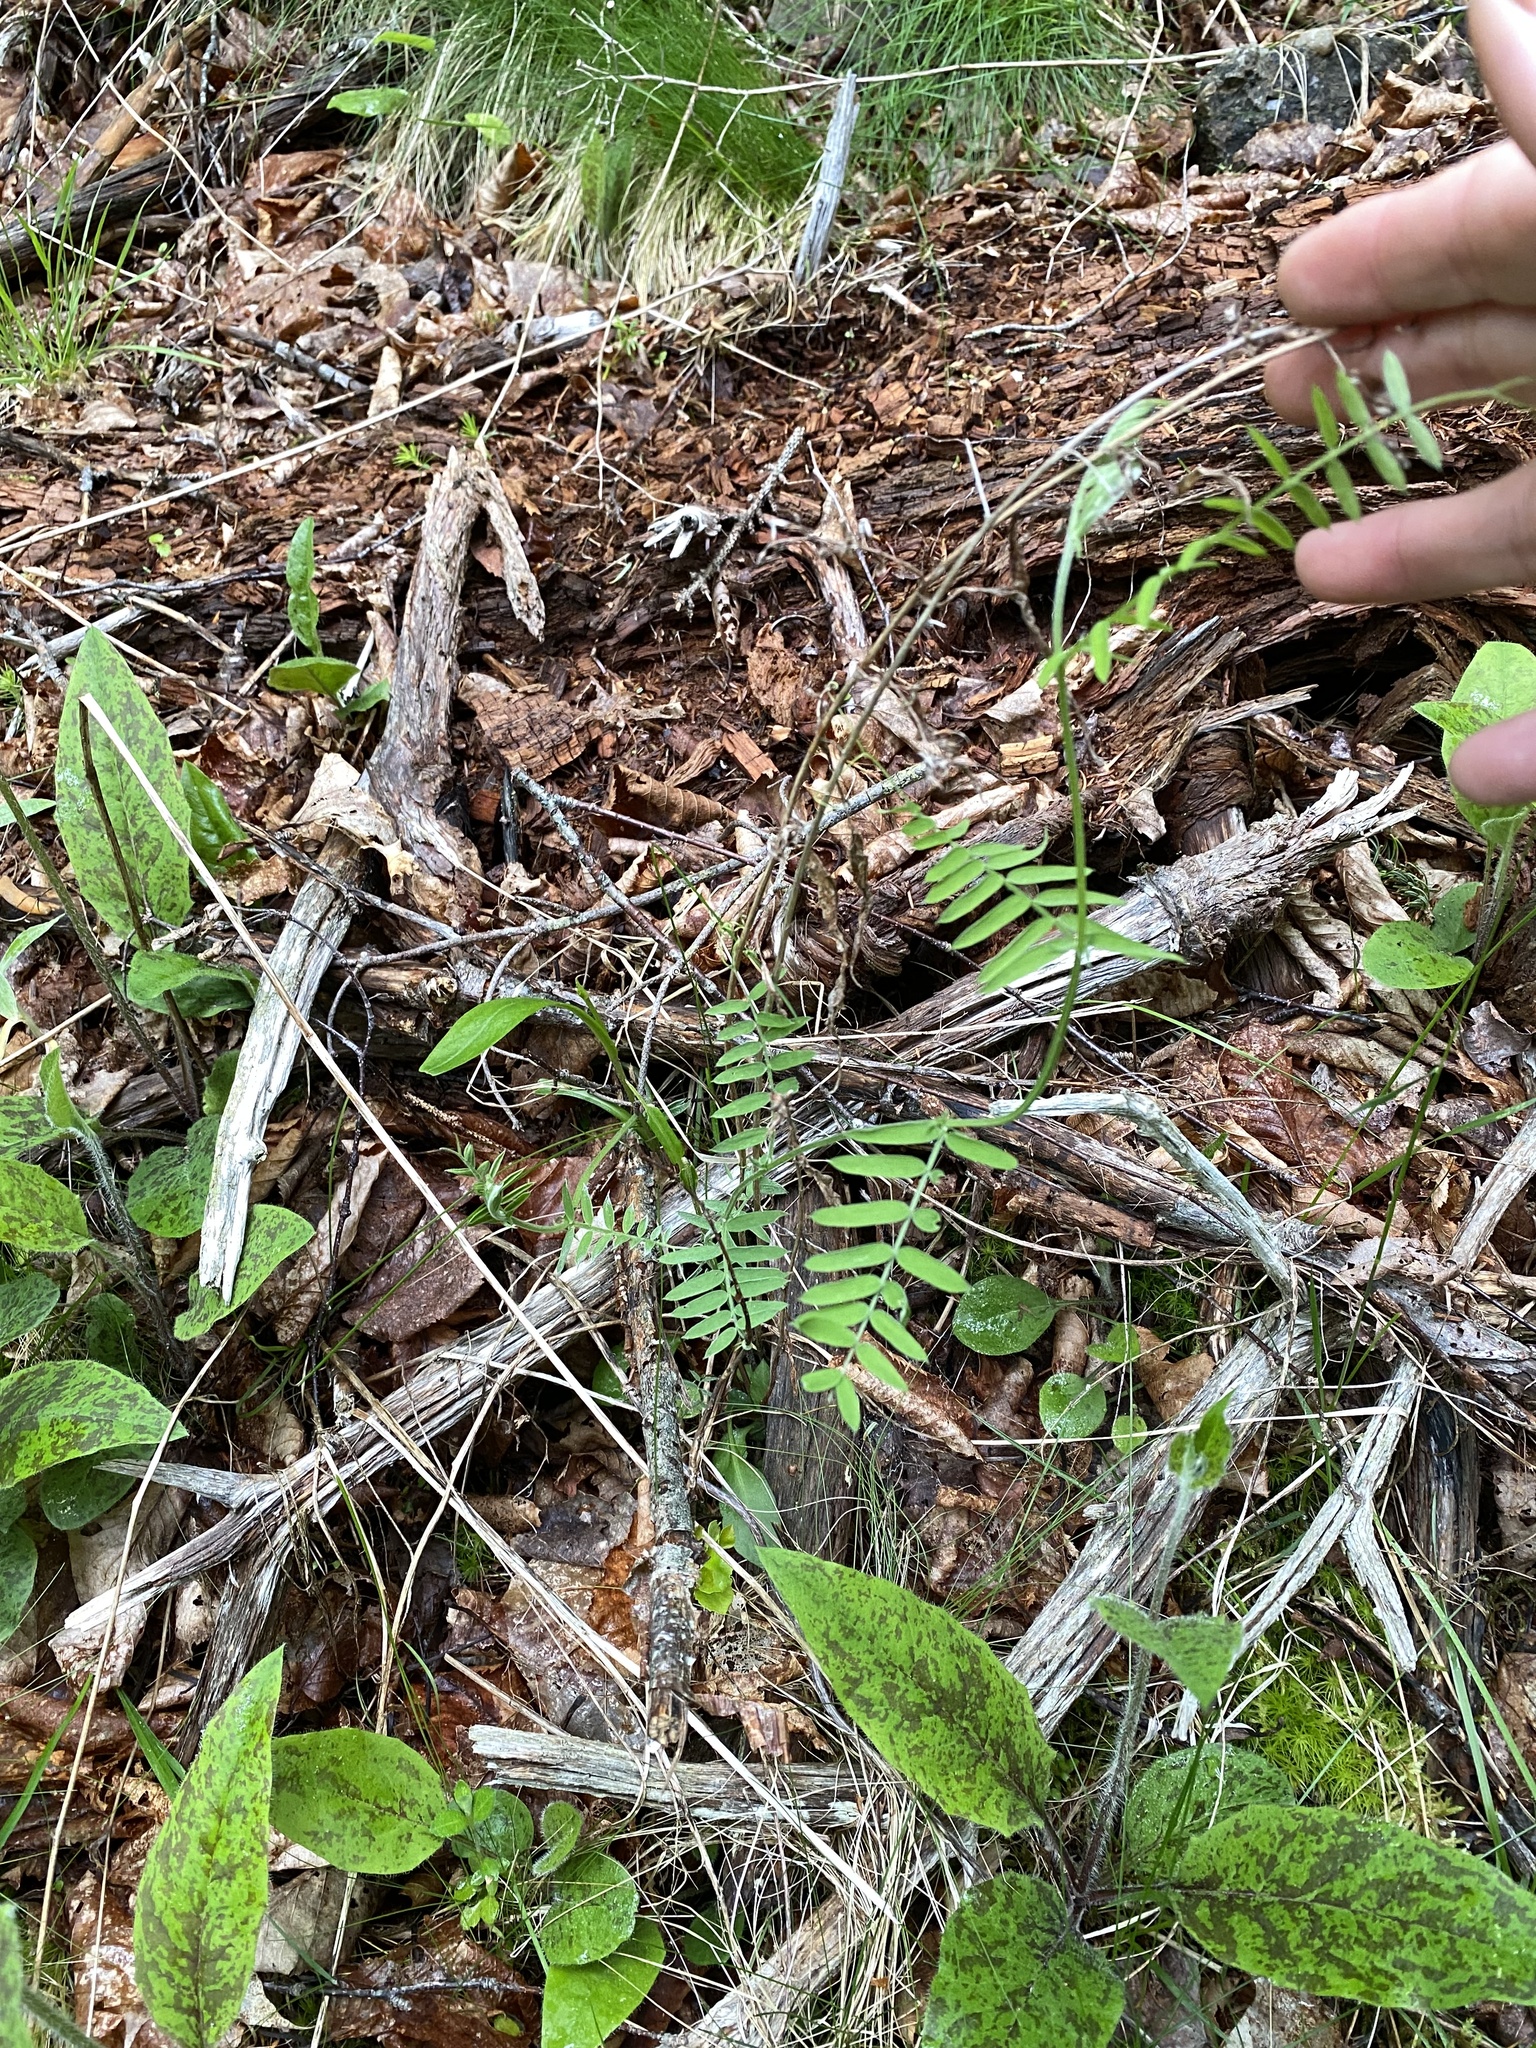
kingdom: Plantae
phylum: Tracheophyta
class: Magnoliopsida
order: Fabales
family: Fabaceae
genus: Vicia
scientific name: Vicia cracca
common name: Bird vetch
